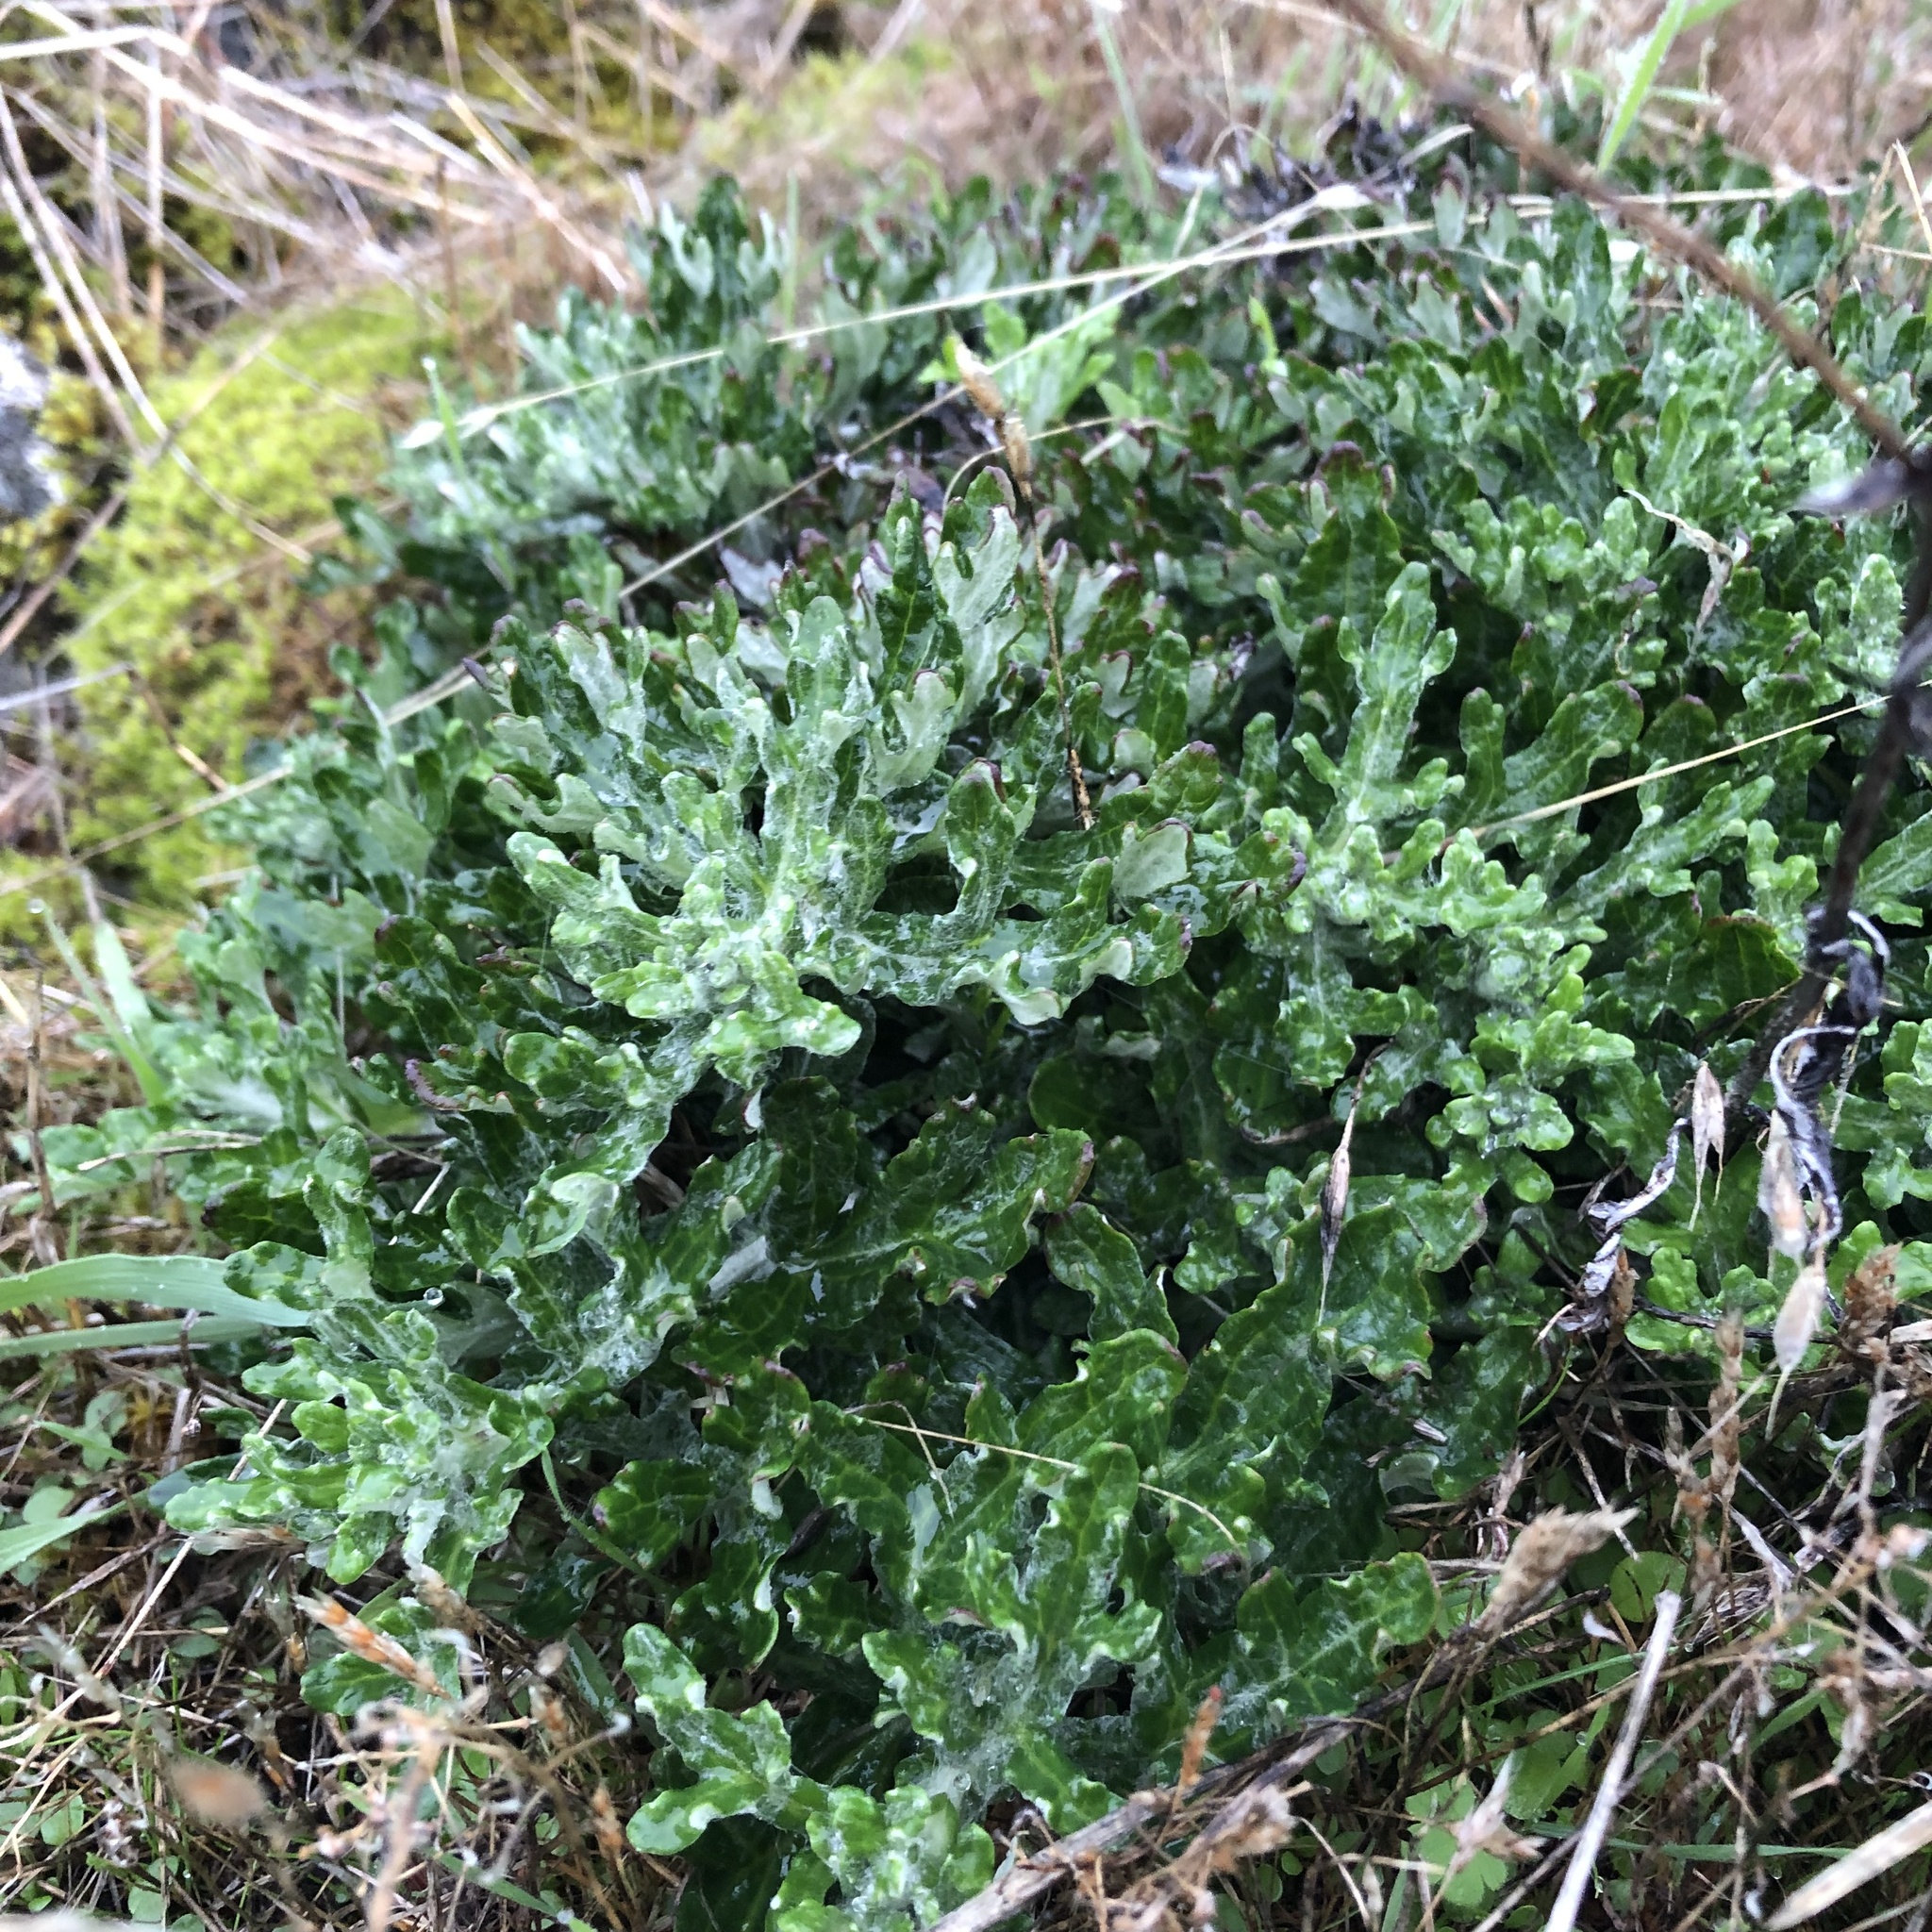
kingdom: Plantae
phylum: Tracheophyta
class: Magnoliopsida
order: Asterales
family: Asteraceae
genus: Eriophyllum
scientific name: Eriophyllum lanatum
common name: Common woolly-sunflower
